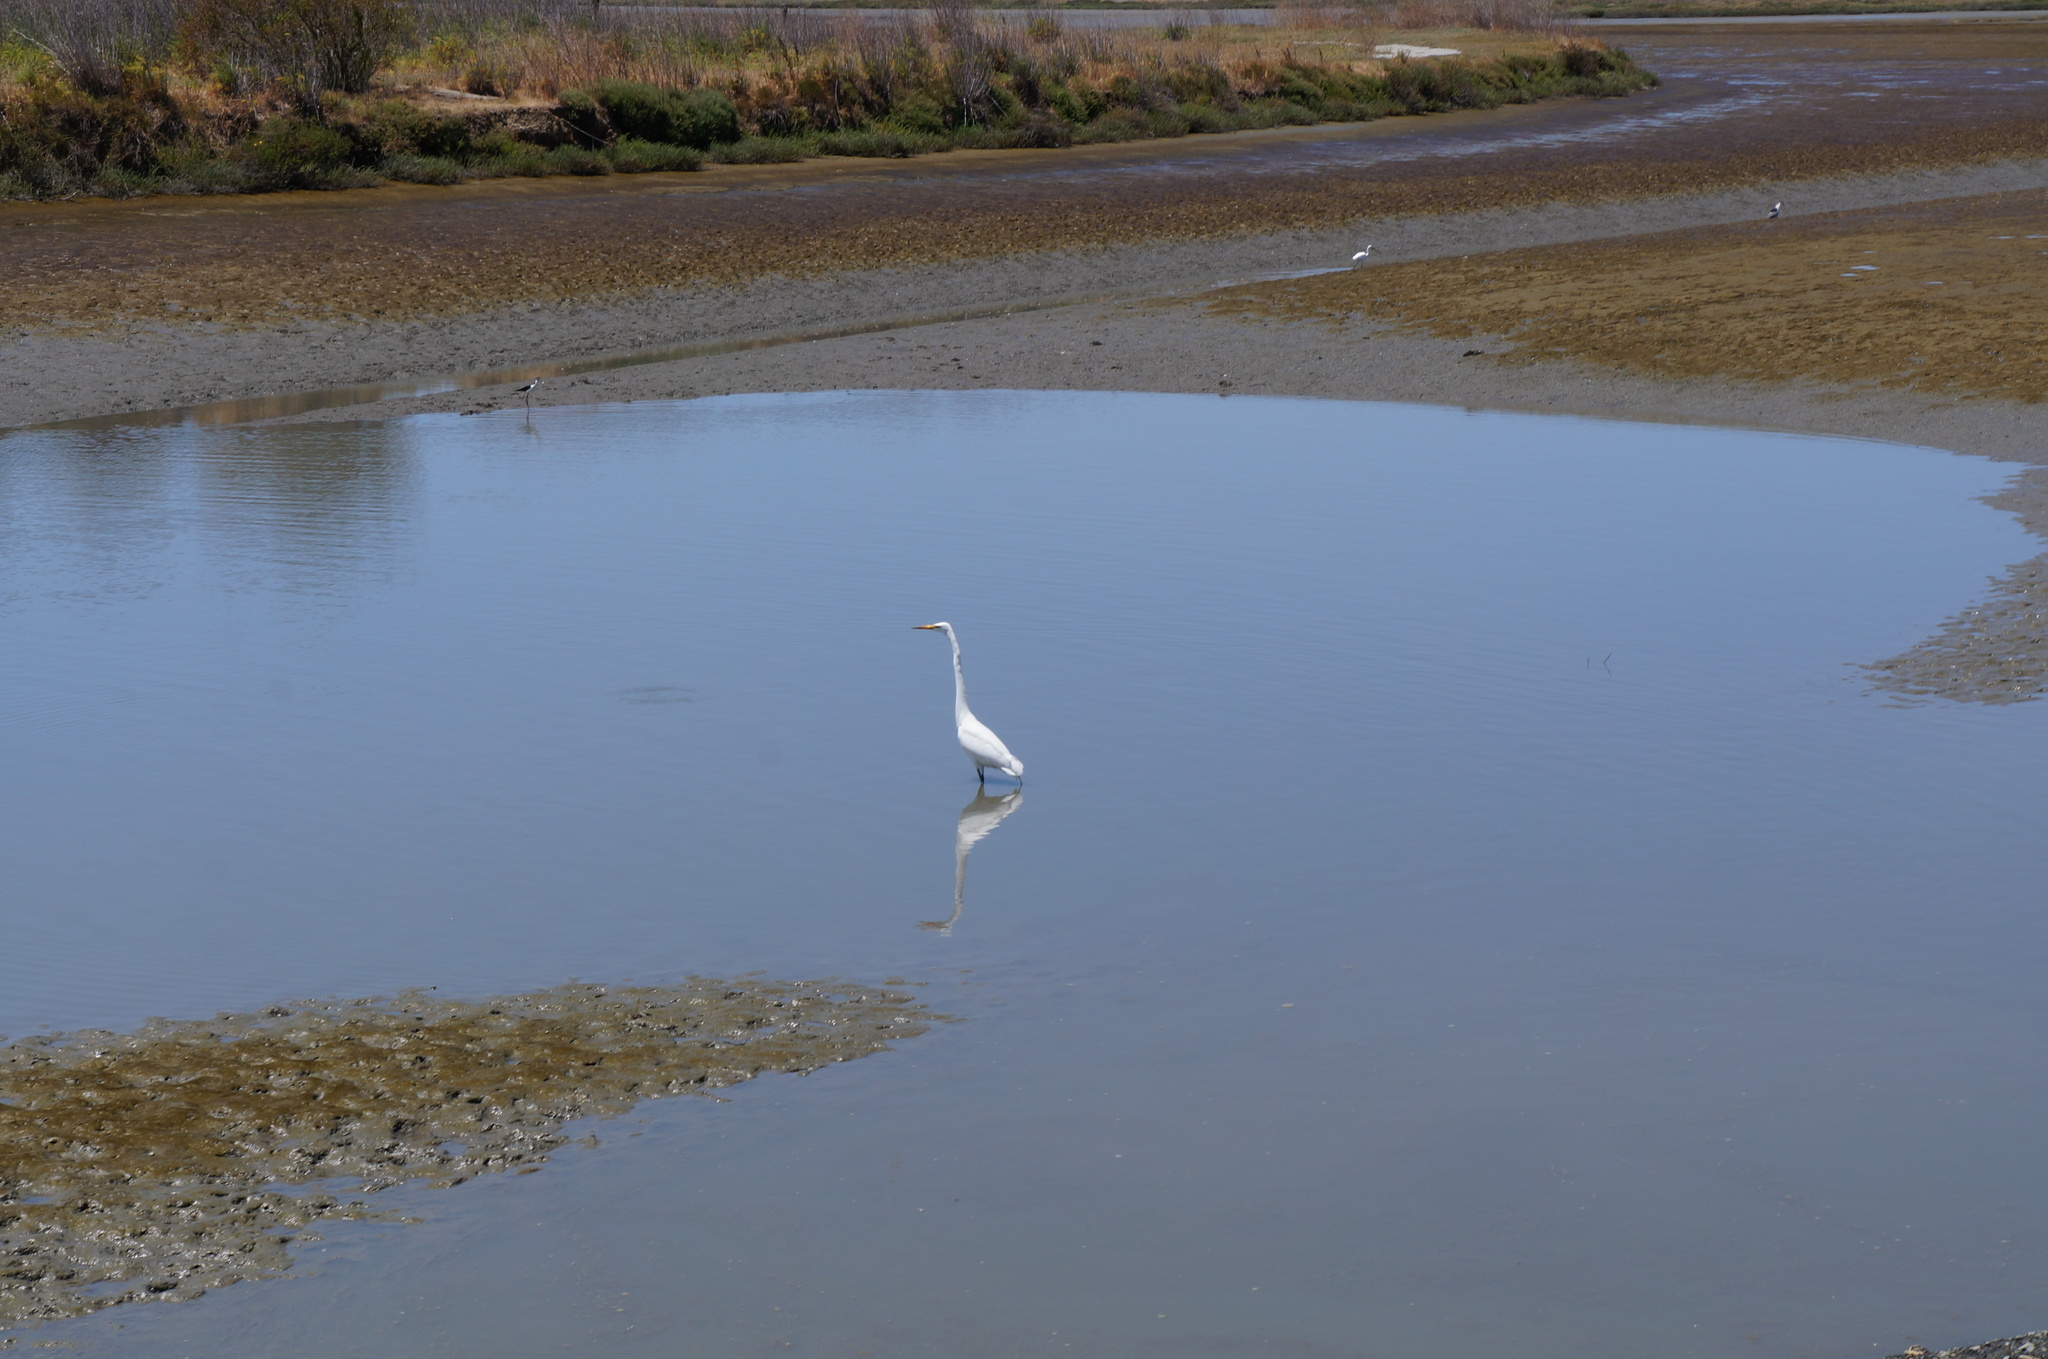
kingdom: Animalia
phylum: Chordata
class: Aves
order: Pelecaniformes
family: Ardeidae
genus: Ardea
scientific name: Ardea alba
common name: Great egret
